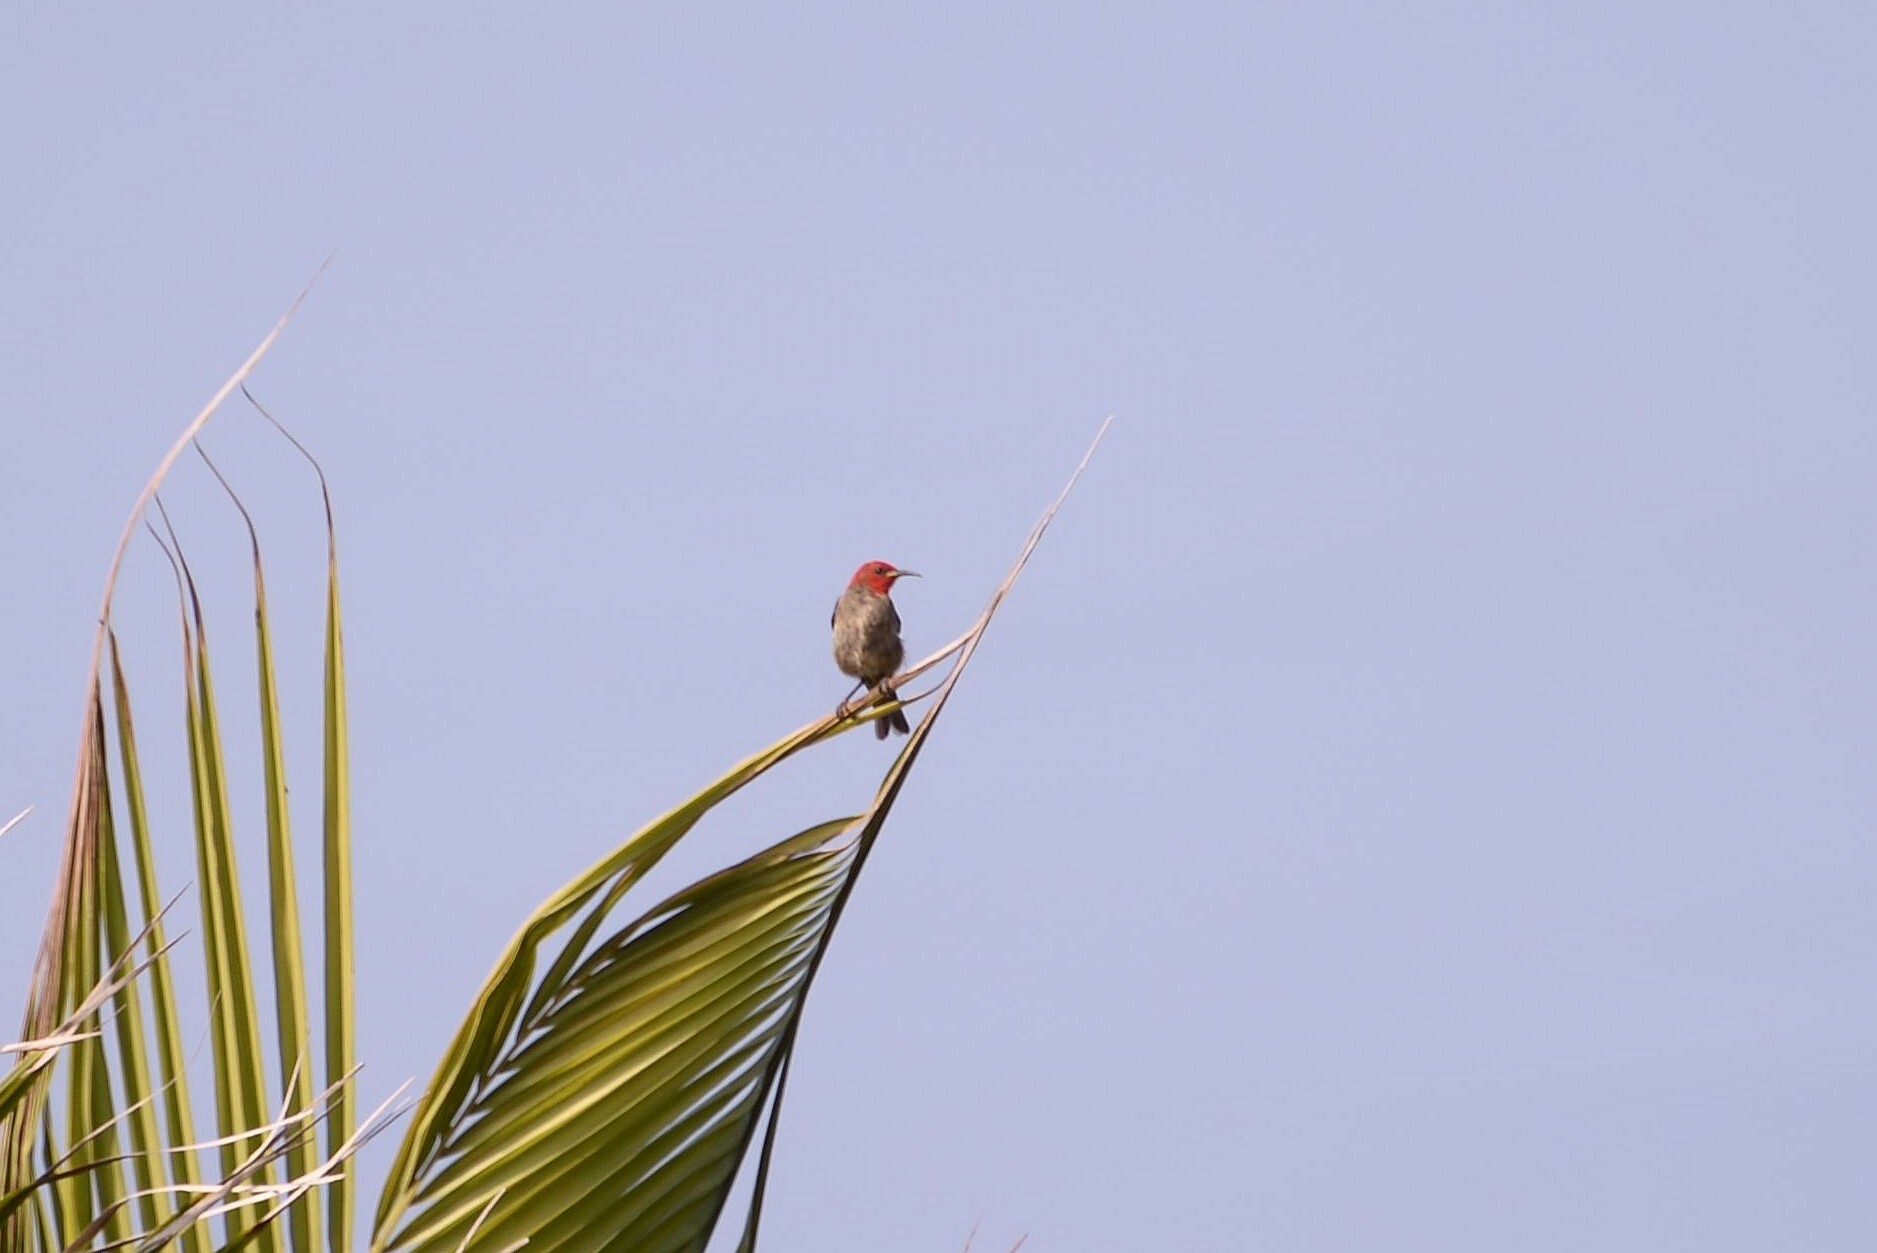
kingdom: Animalia
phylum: Chordata
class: Aves
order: Passeriformes
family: Meliphagidae
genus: Myzomela
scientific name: Myzomela cardinalis
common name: Cardinal myzomela
